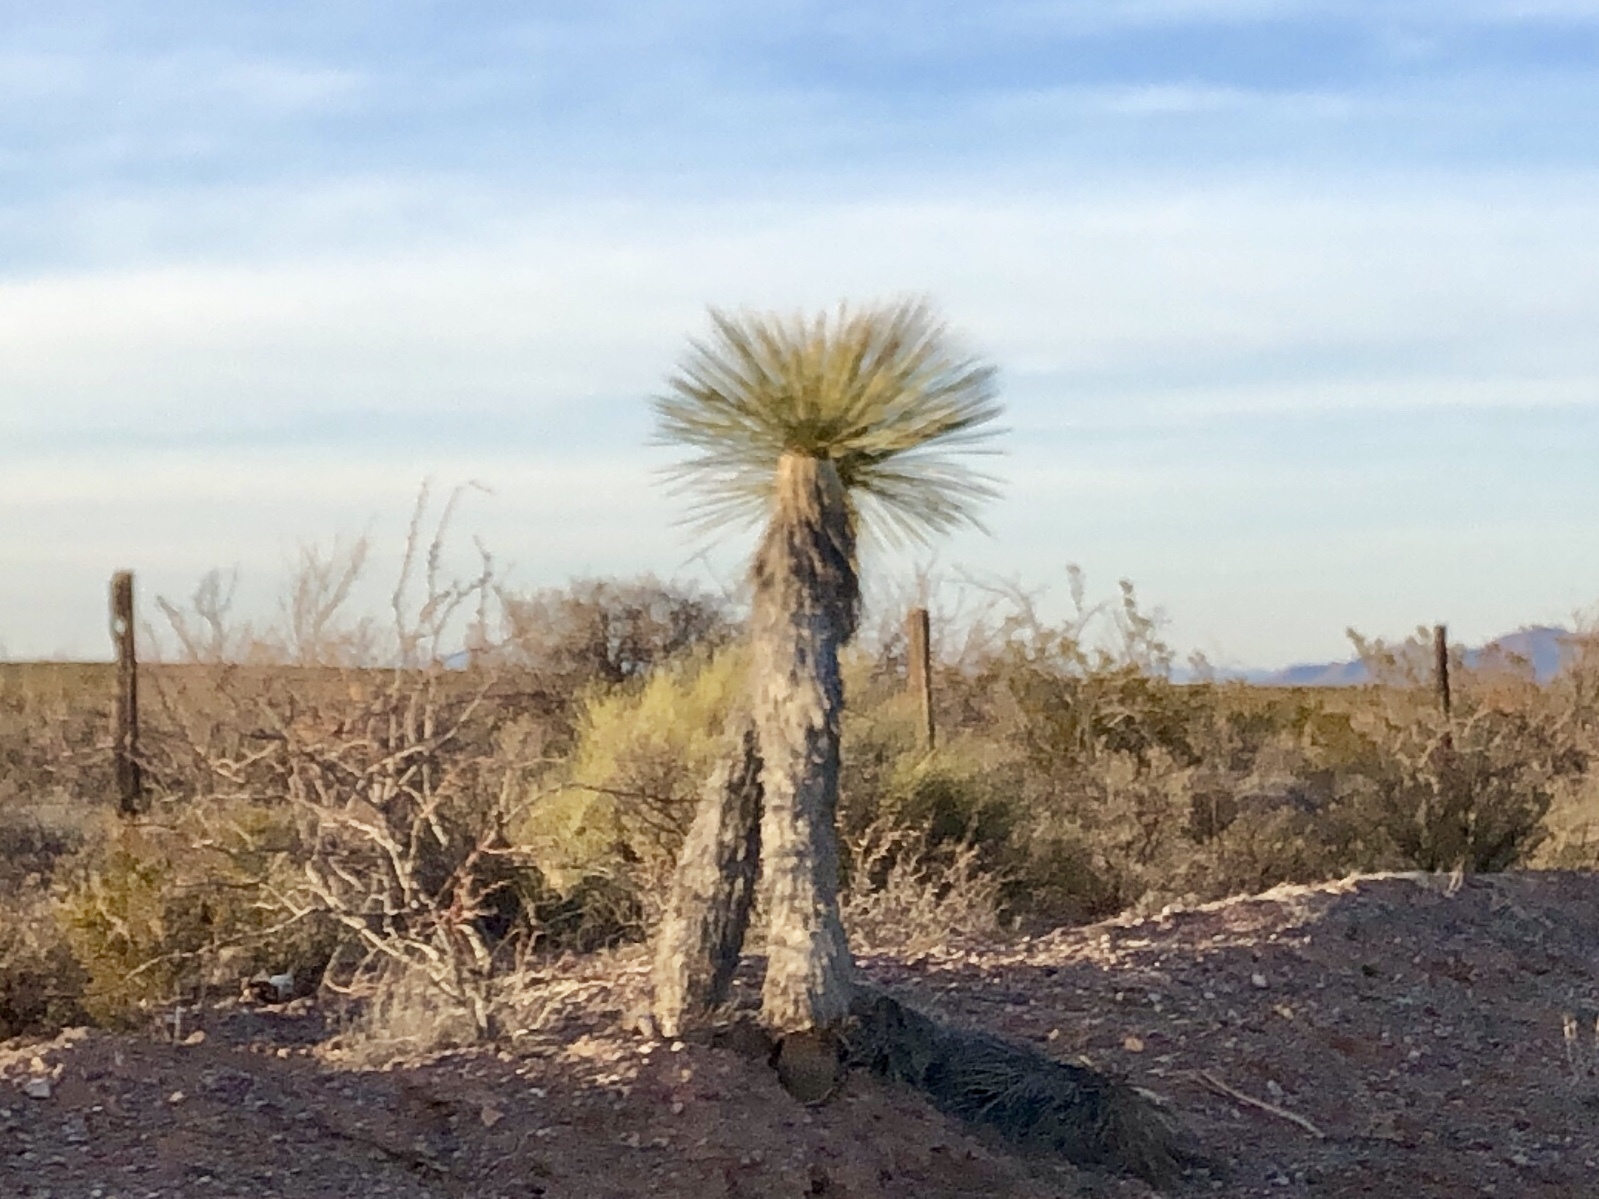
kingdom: Plantae
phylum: Tracheophyta
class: Liliopsida
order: Asparagales
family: Asparagaceae
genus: Yucca
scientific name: Yucca elata
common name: Palmella
